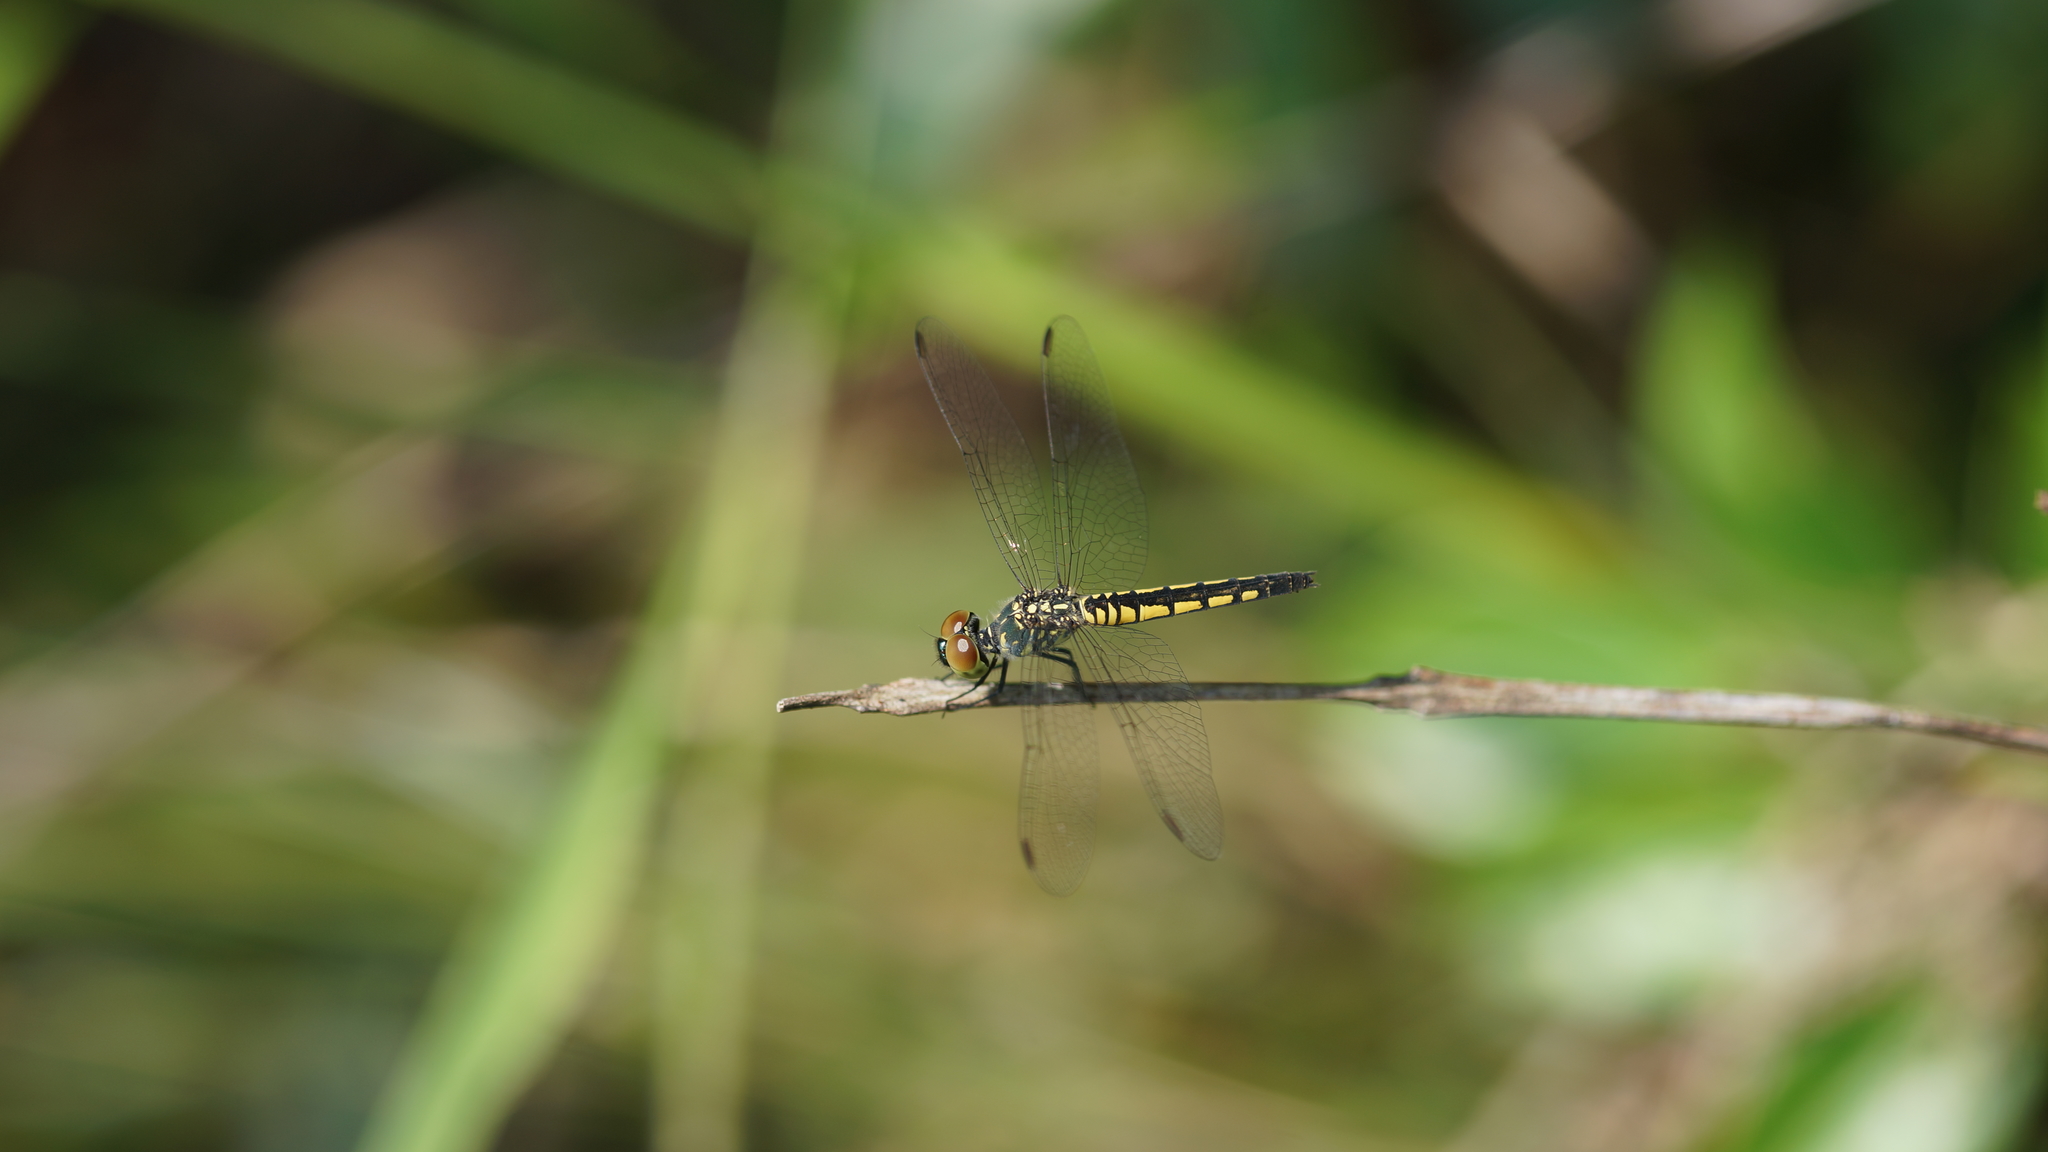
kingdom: Animalia
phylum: Arthropoda
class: Insecta
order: Odonata
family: Libellulidae
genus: Brachydiplax
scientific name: Brachydiplax sobrina
